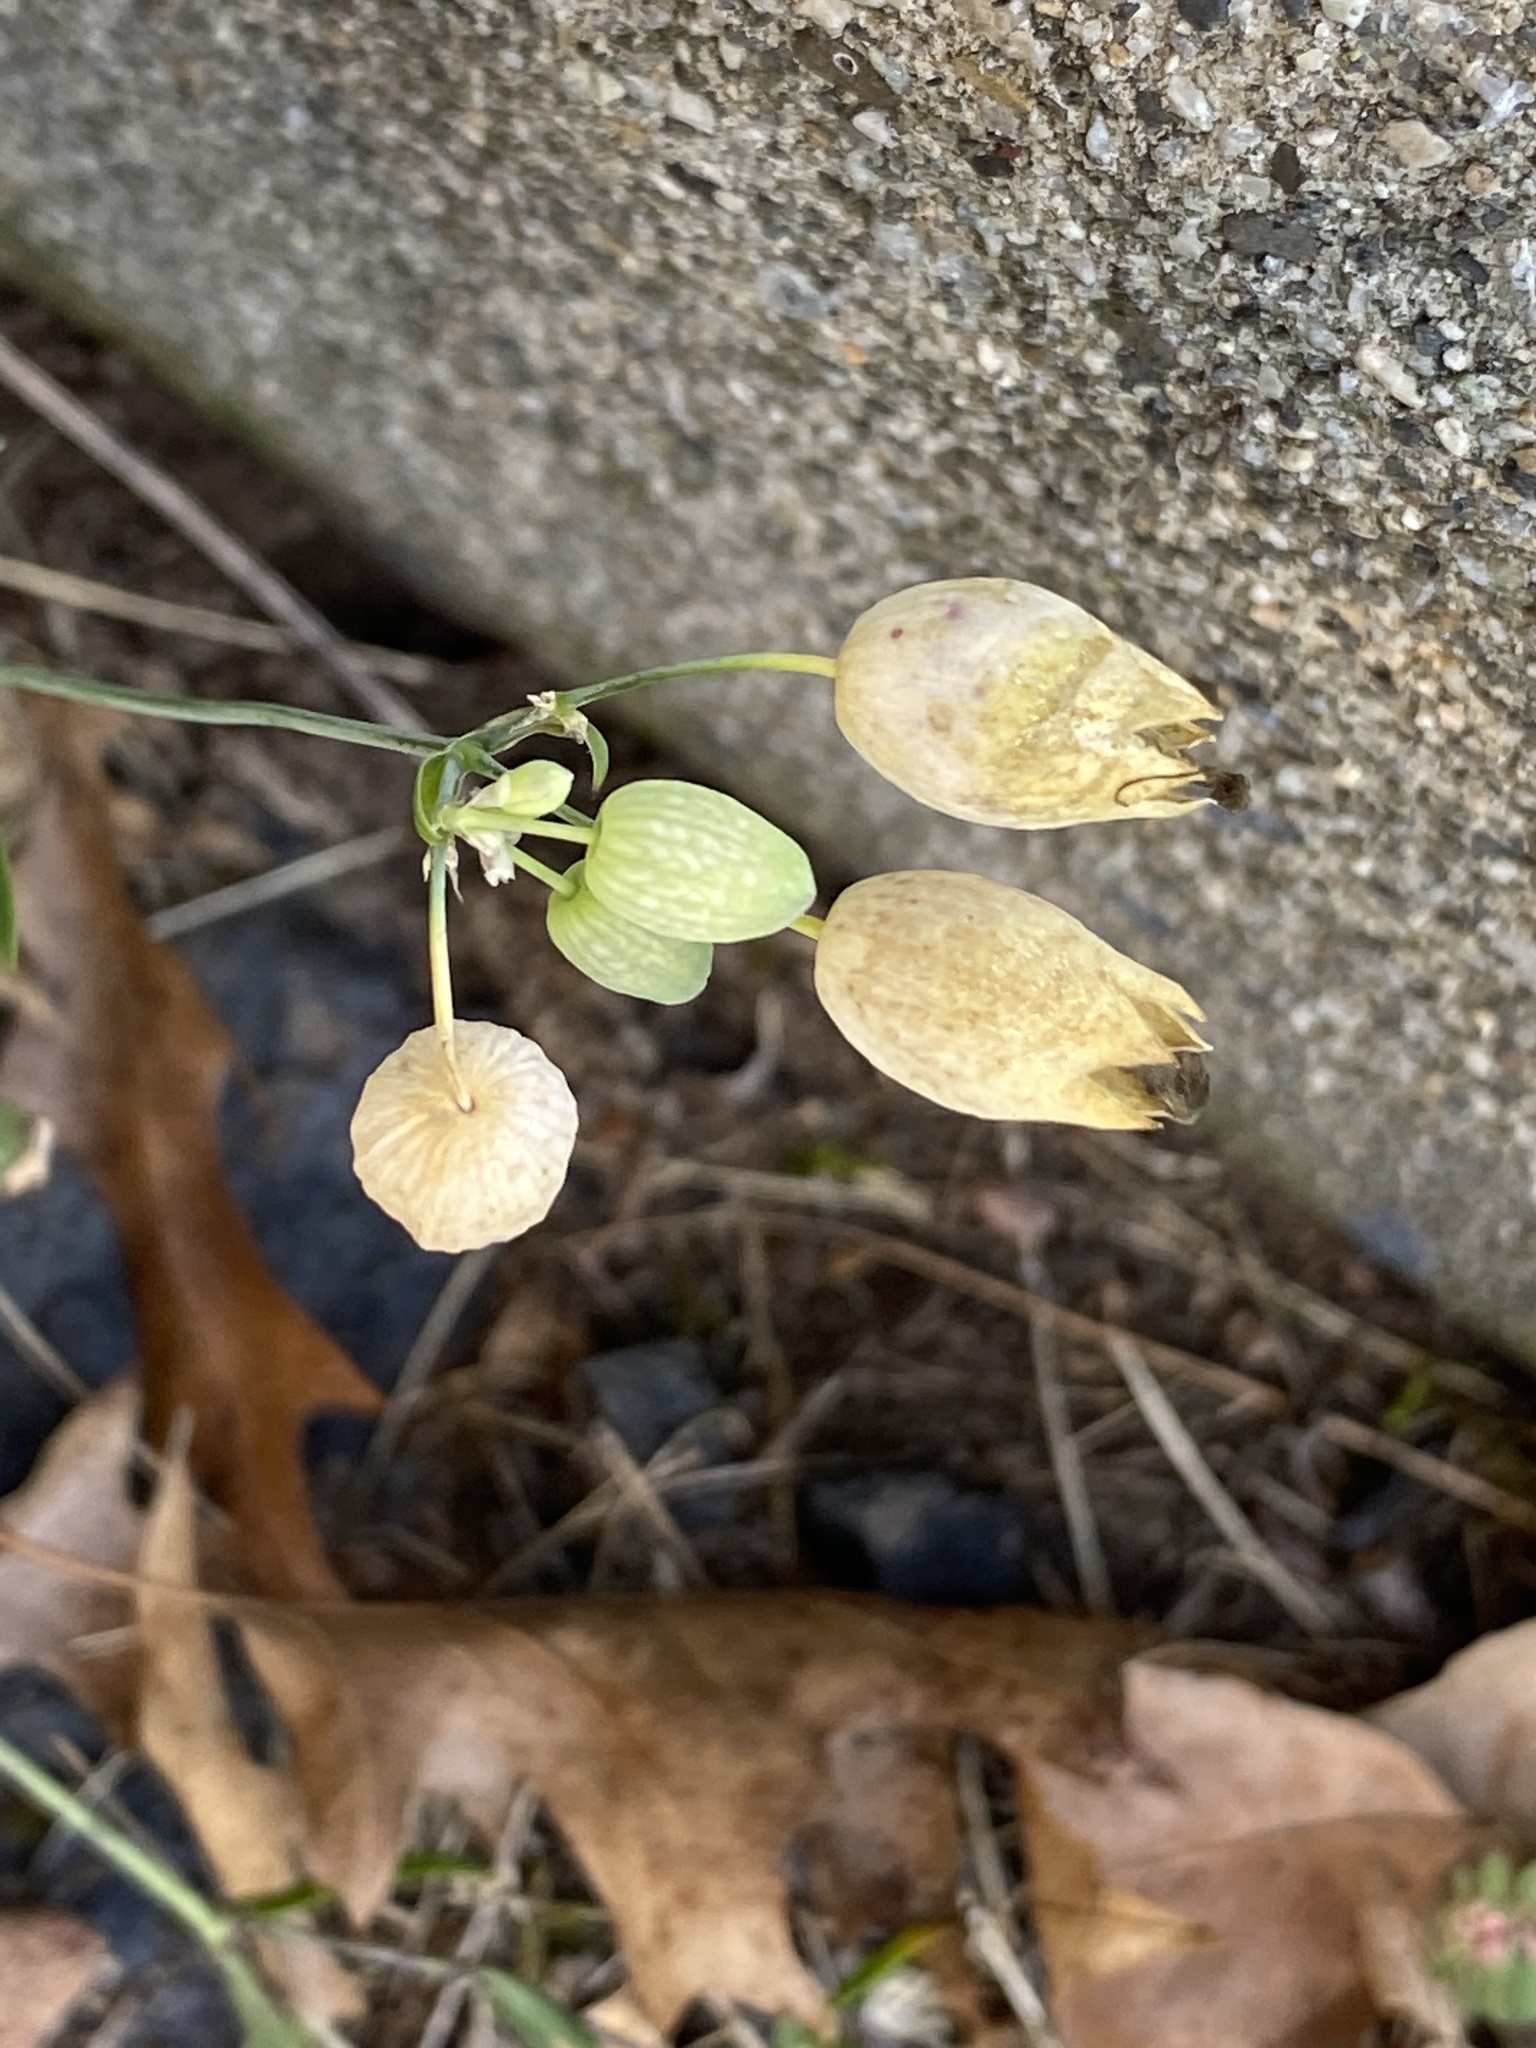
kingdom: Plantae
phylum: Tracheophyta
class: Magnoliopsida
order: Caryophyllales
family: Caryophyllaceae
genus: Silene
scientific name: Silene vulgaris
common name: Bladder campion
